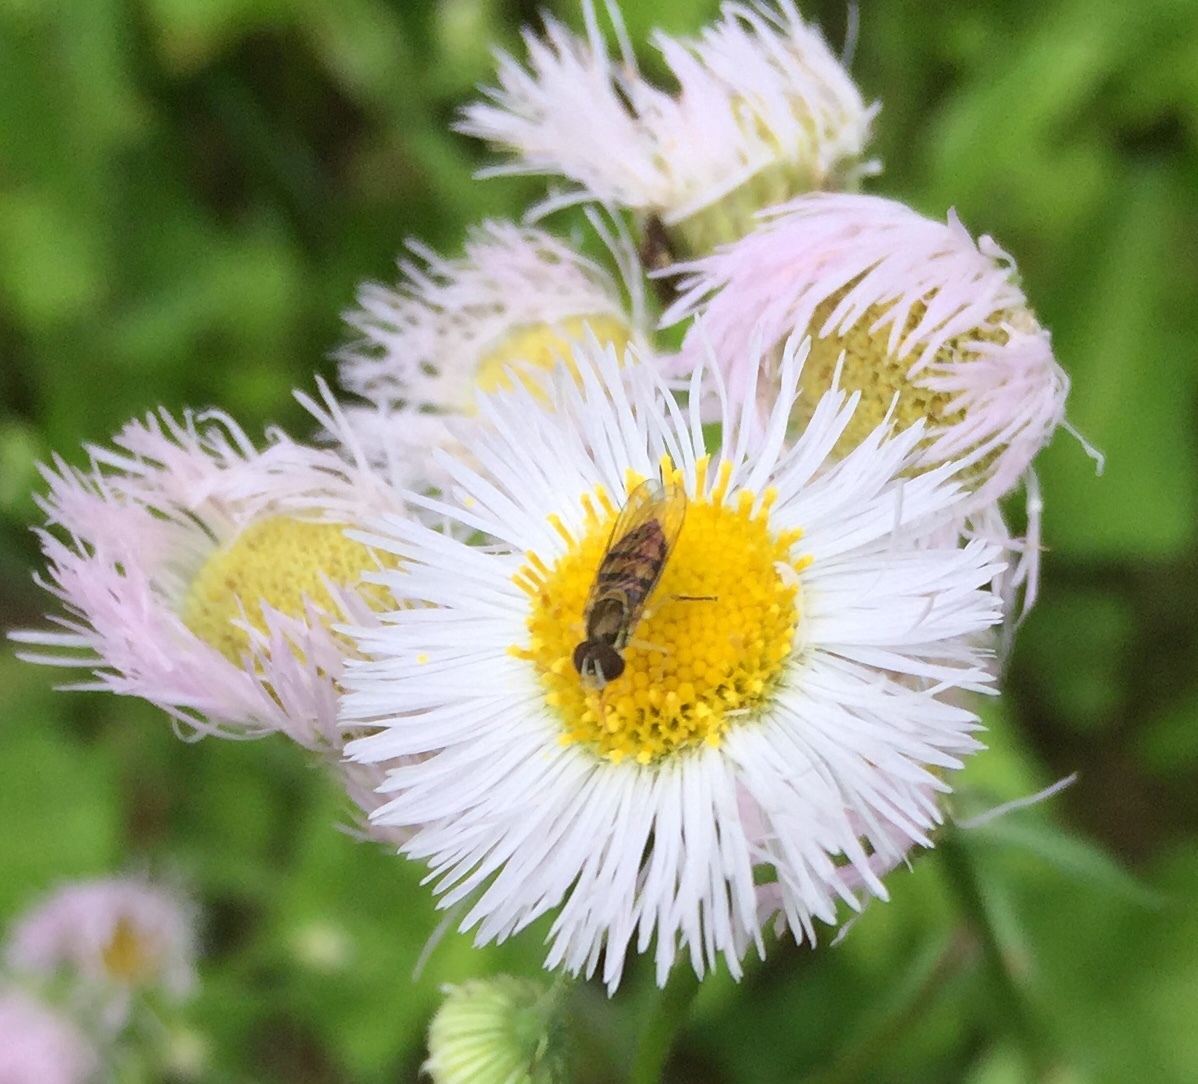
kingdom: Animalia
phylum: Arthropoda
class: Insecta
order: Diptera
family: Syrphidae
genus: Toxomerus
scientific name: Toxomerus marginatus
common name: Syrphid fly
